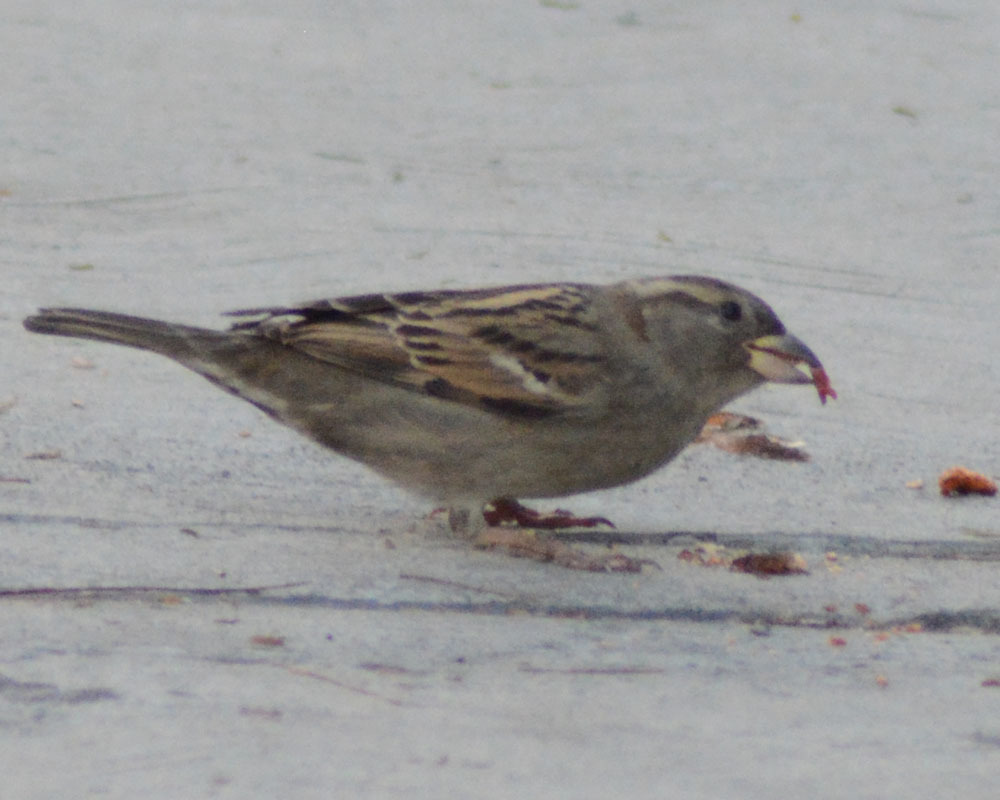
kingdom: Animalia
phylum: Chordata
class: Aves
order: Passeriformes
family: Passeridae
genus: Passer
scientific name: Passer domesticus
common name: House sparrow
